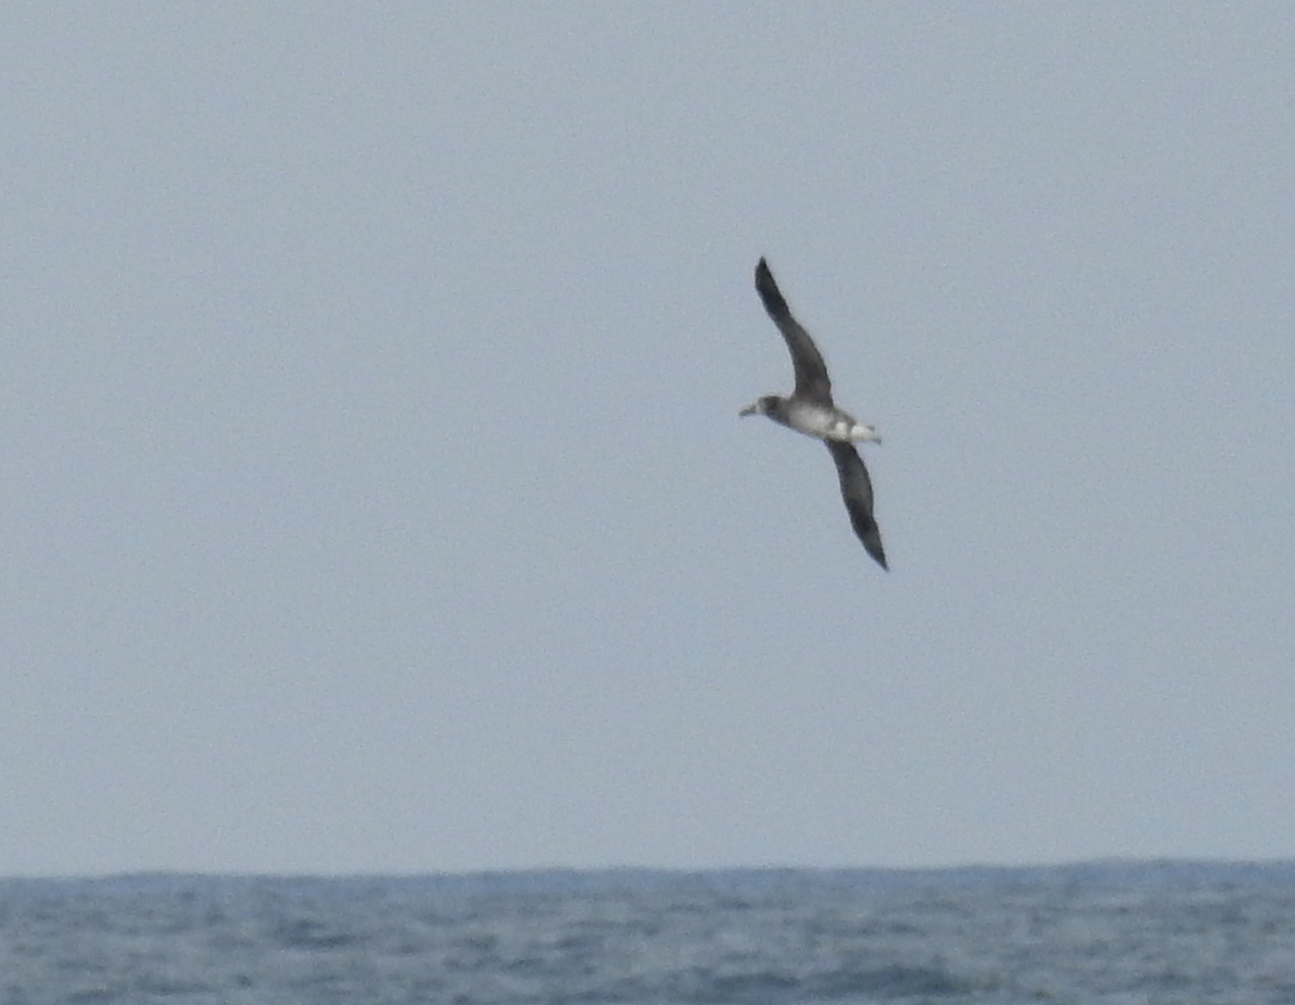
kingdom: Animalia
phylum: Chordata
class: Aves
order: Procellariiformes
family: Diomedeidae
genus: Phoebastria
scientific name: Phoebastria nigripes
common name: Black-footed albatross
